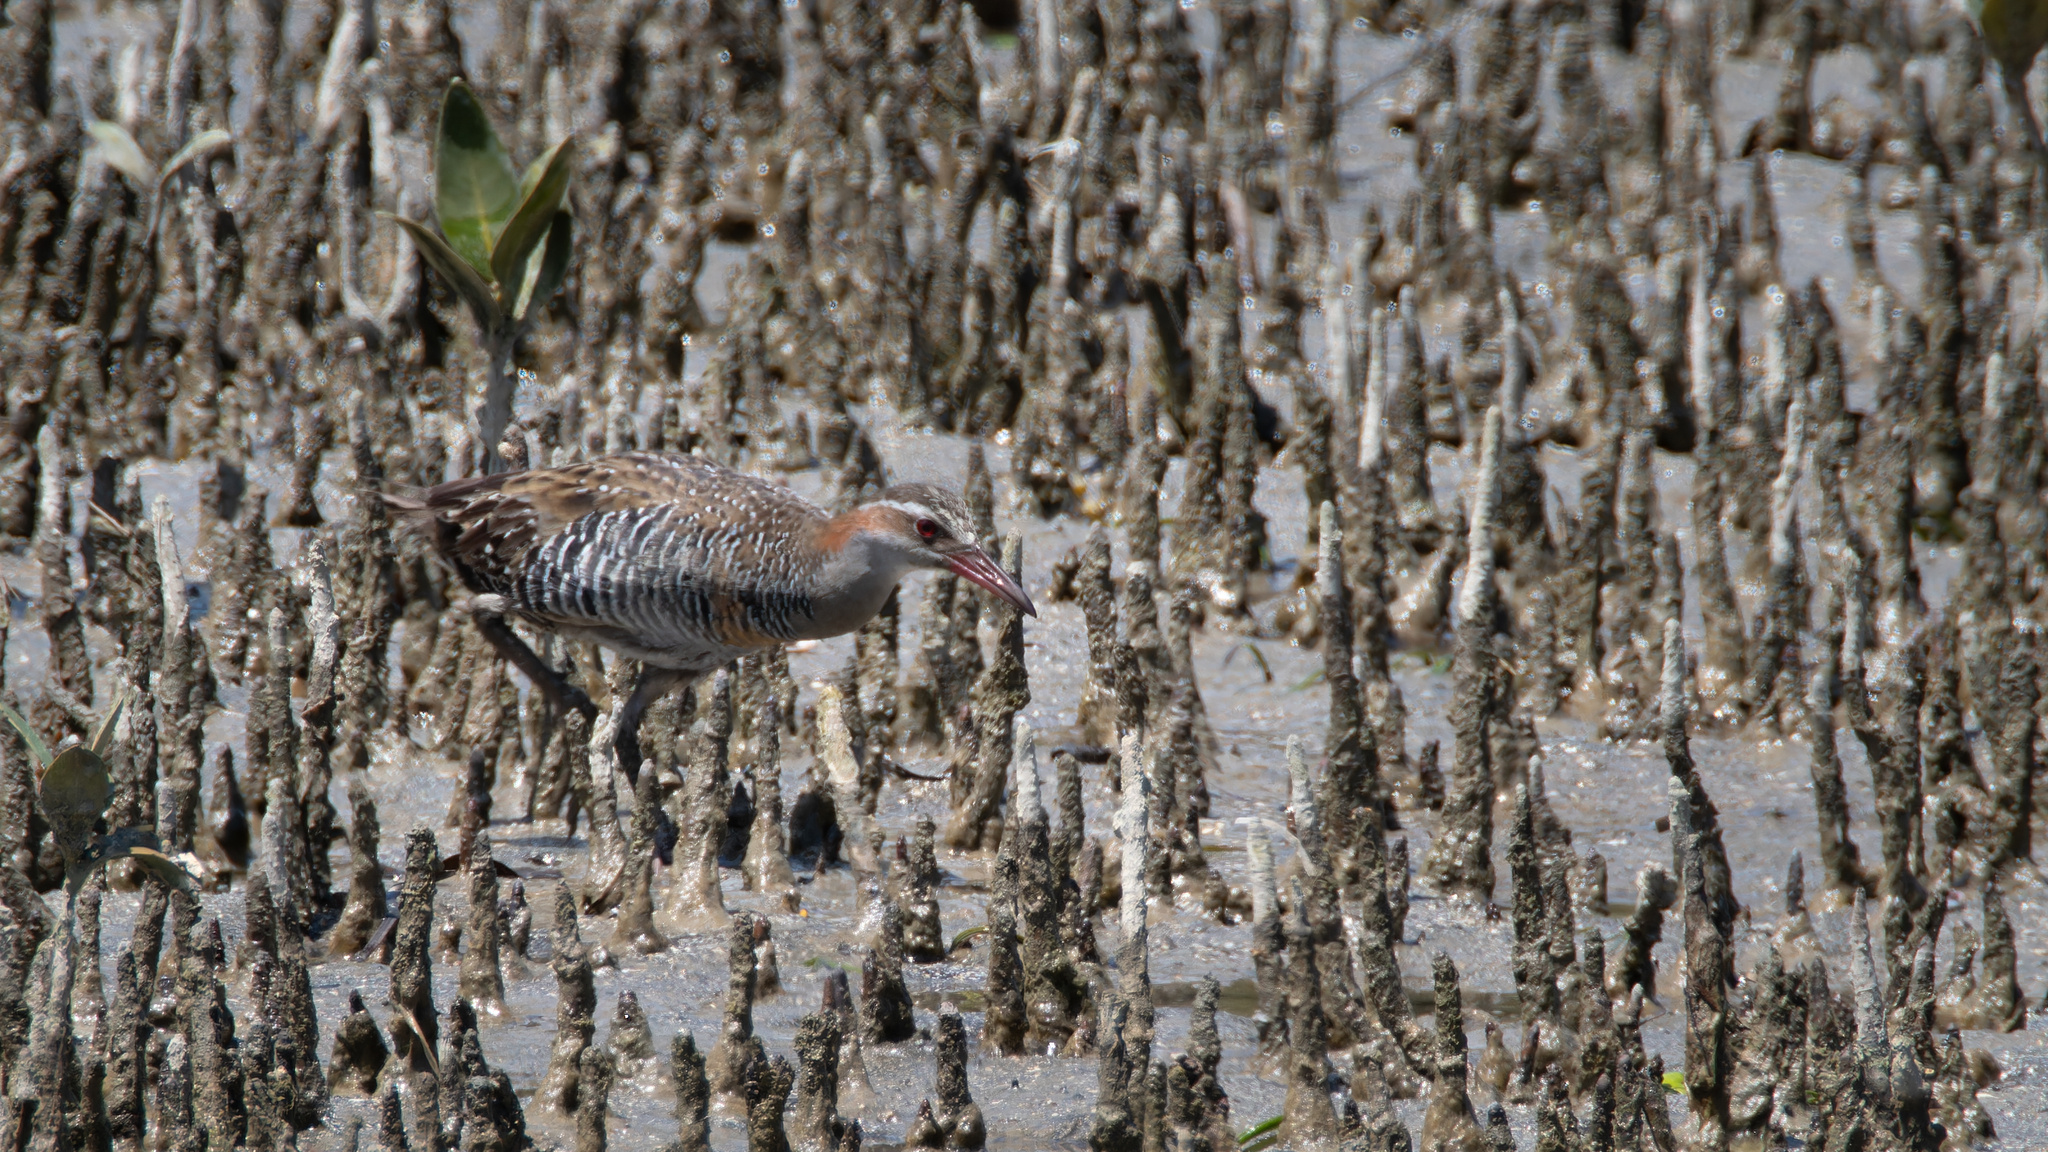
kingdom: Animalia
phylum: Chordata
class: Aves
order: Gruiformes
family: Rallidae
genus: Gallirallus
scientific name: Gallirallus philippensis
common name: Buff-banded rail
